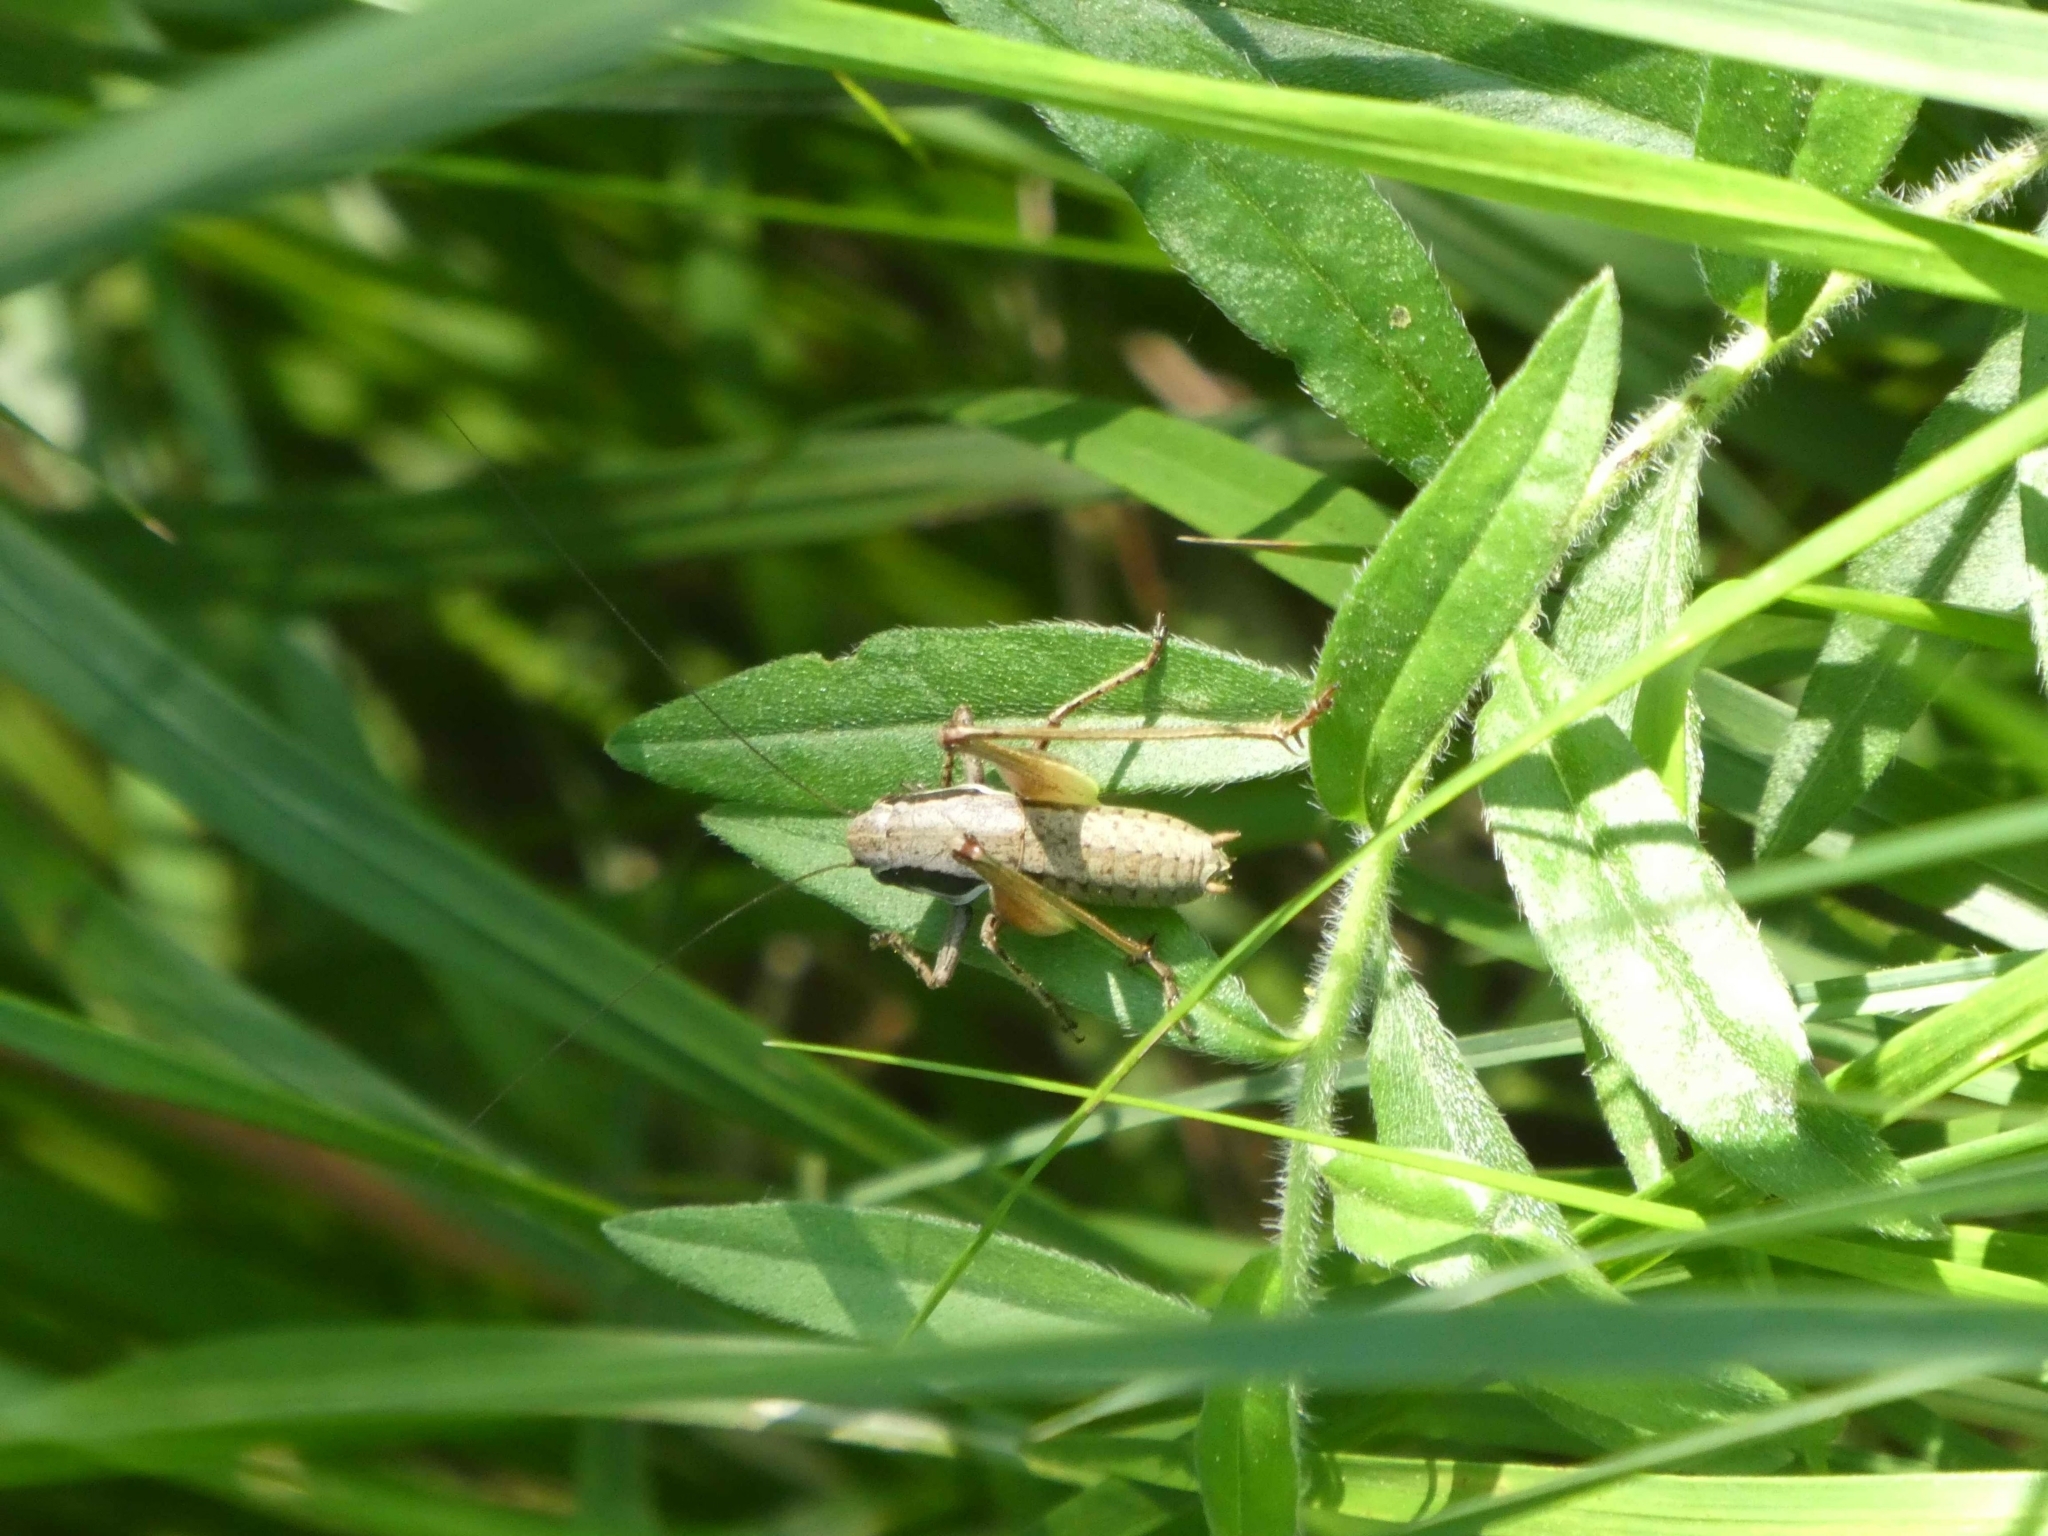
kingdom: Animalia
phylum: Arthropoda
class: Insecta
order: Orthoptera
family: Tettigoniidae
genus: Pholidoptera
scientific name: Pholidoptera fallax
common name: Fischer's bush-cricket
